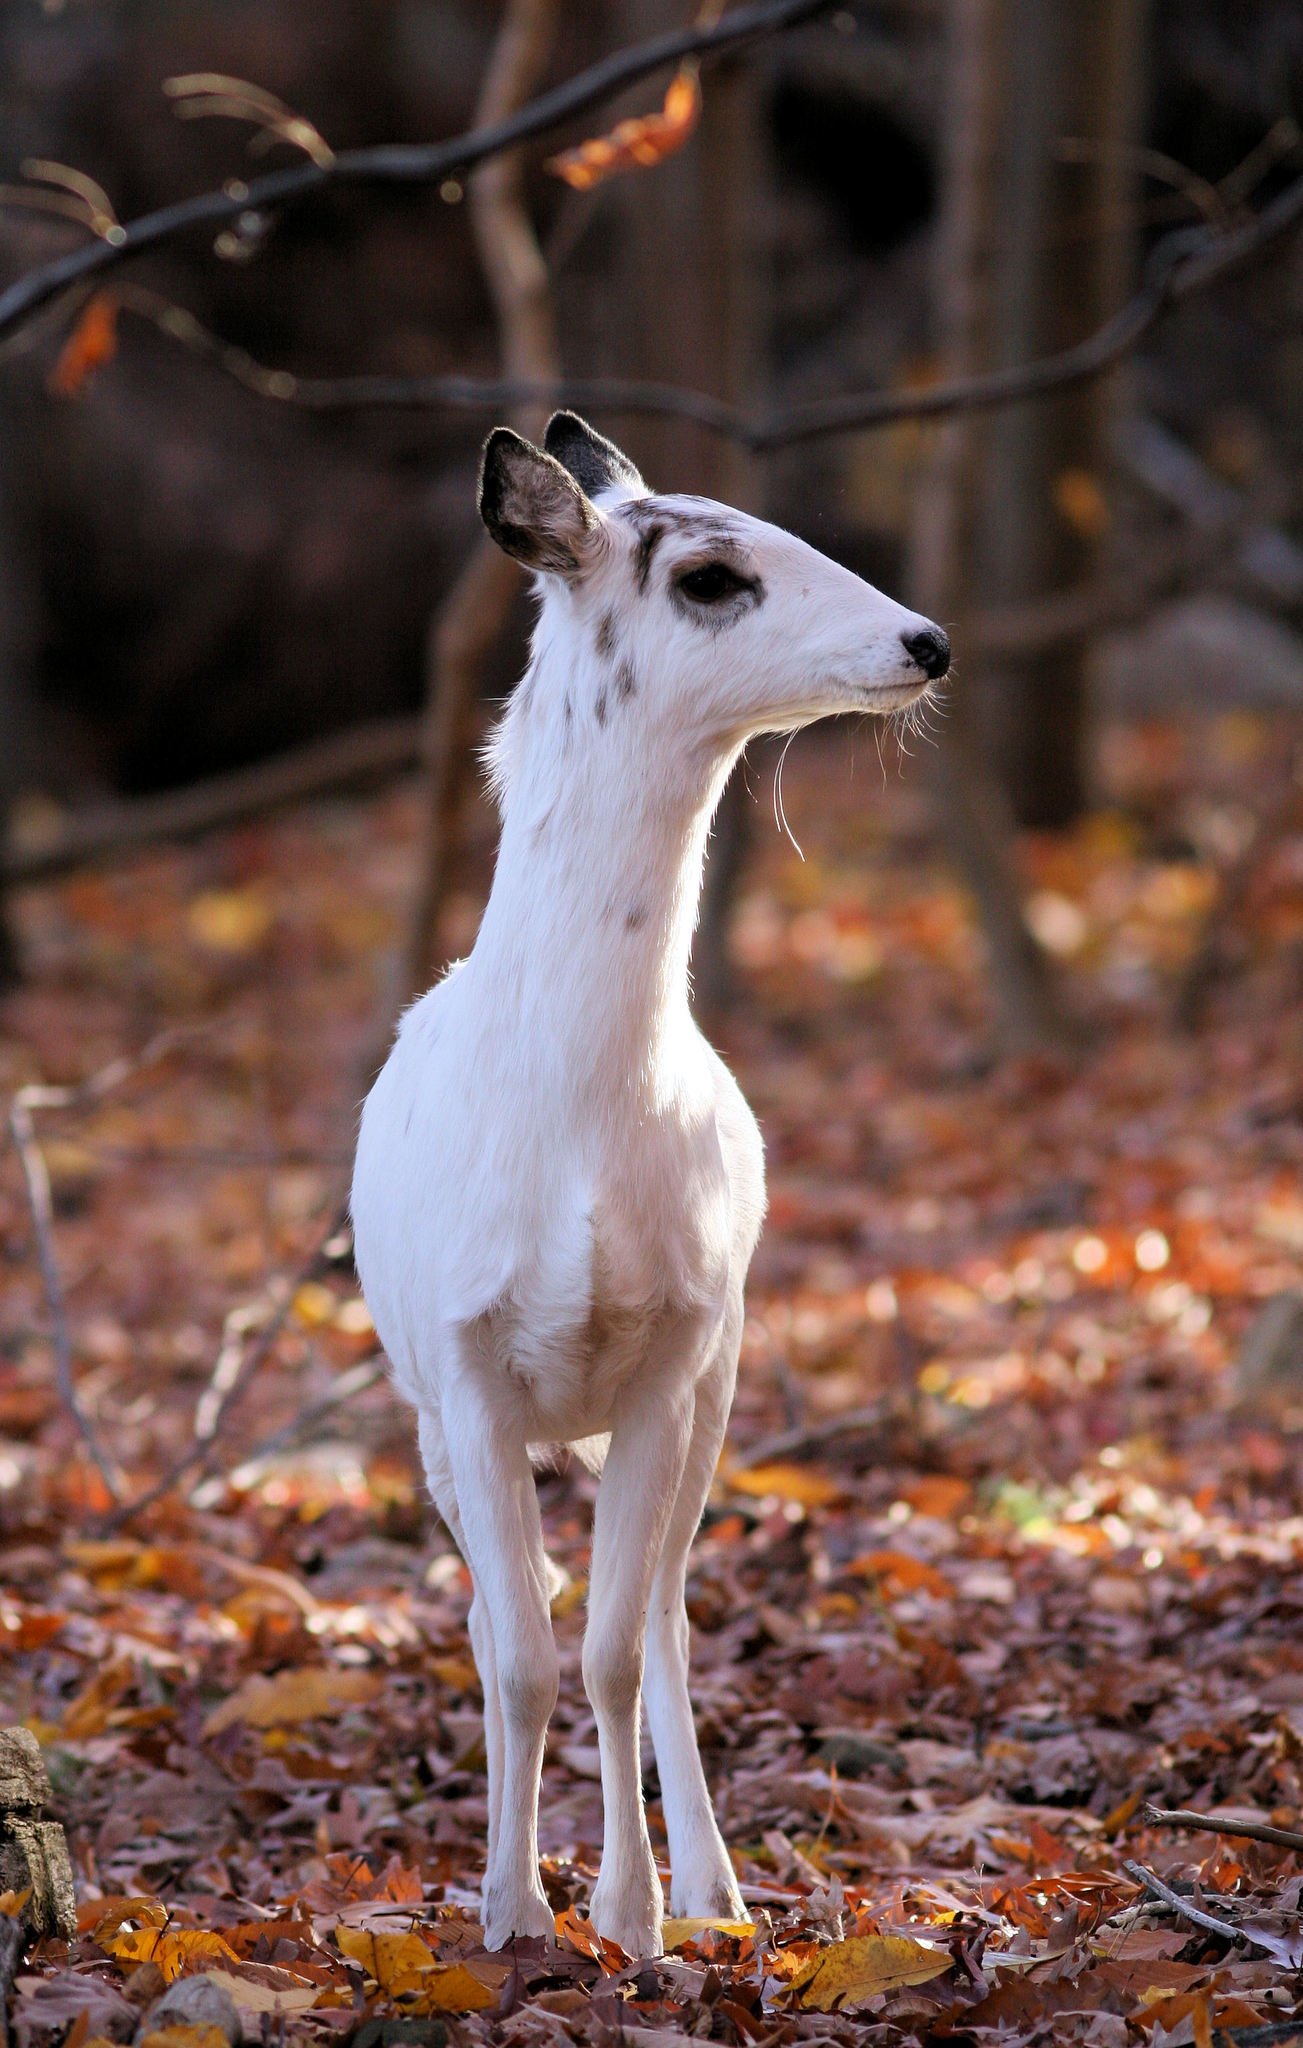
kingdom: Animalia
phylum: Chordata
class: Mammalia
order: Artiodactyla
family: Cervidae
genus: Odocoileus
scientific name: Odocoileus virginianus
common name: White-tailed deer
